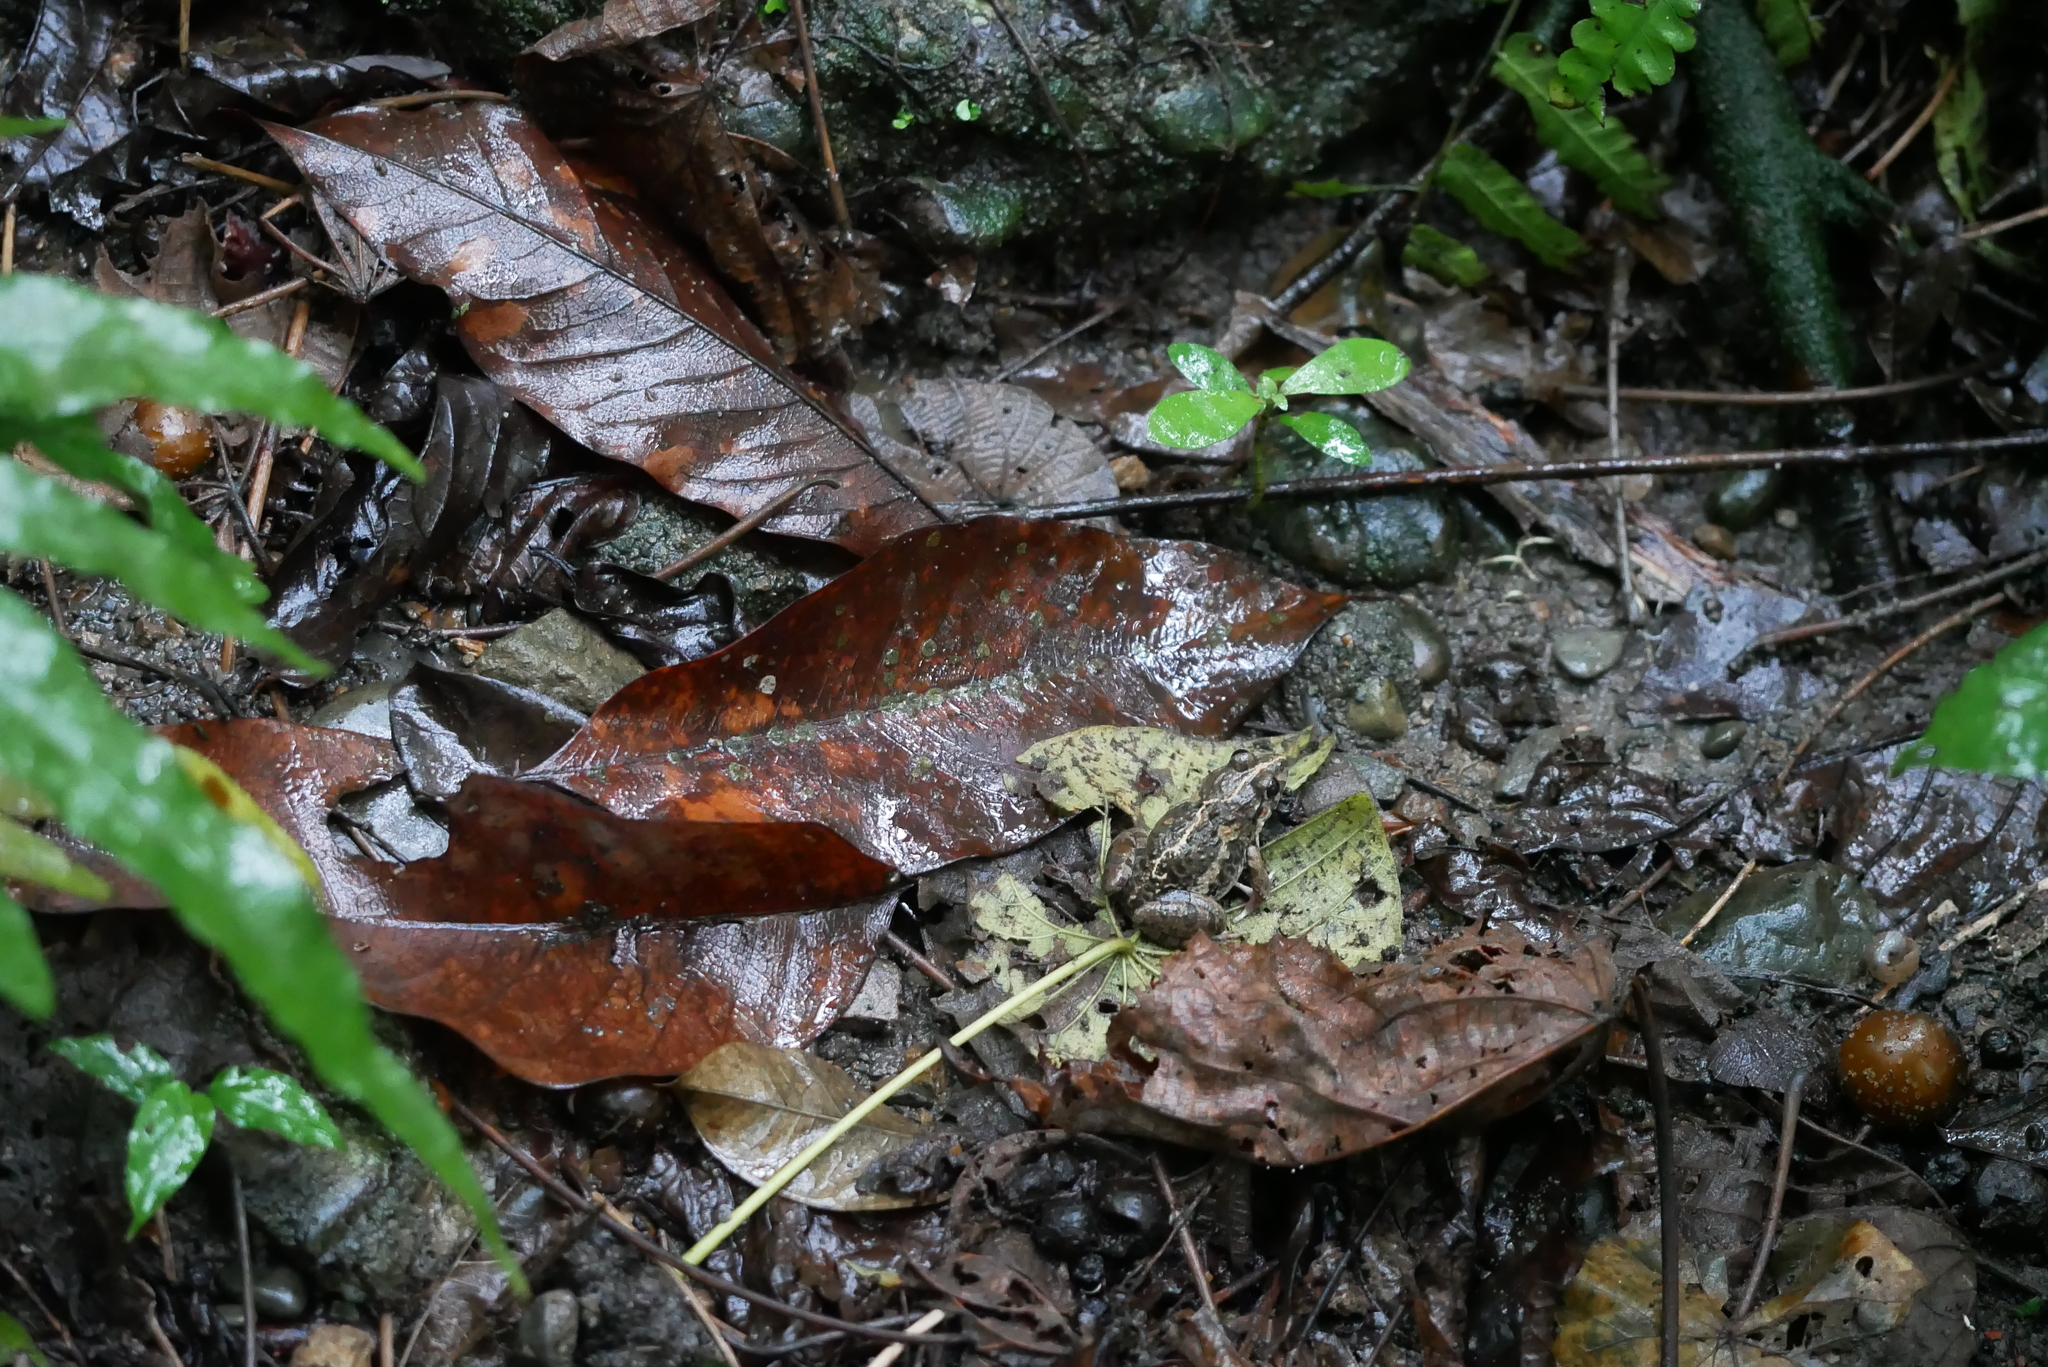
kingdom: Animalia
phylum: Chordata
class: Amphibia
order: Anura
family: Dicroglossidae
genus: Fejervarya
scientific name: Fejervarya limnocharis
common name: Asian grass frog/common pond frog/field frog/grass frog/indian rice frog
